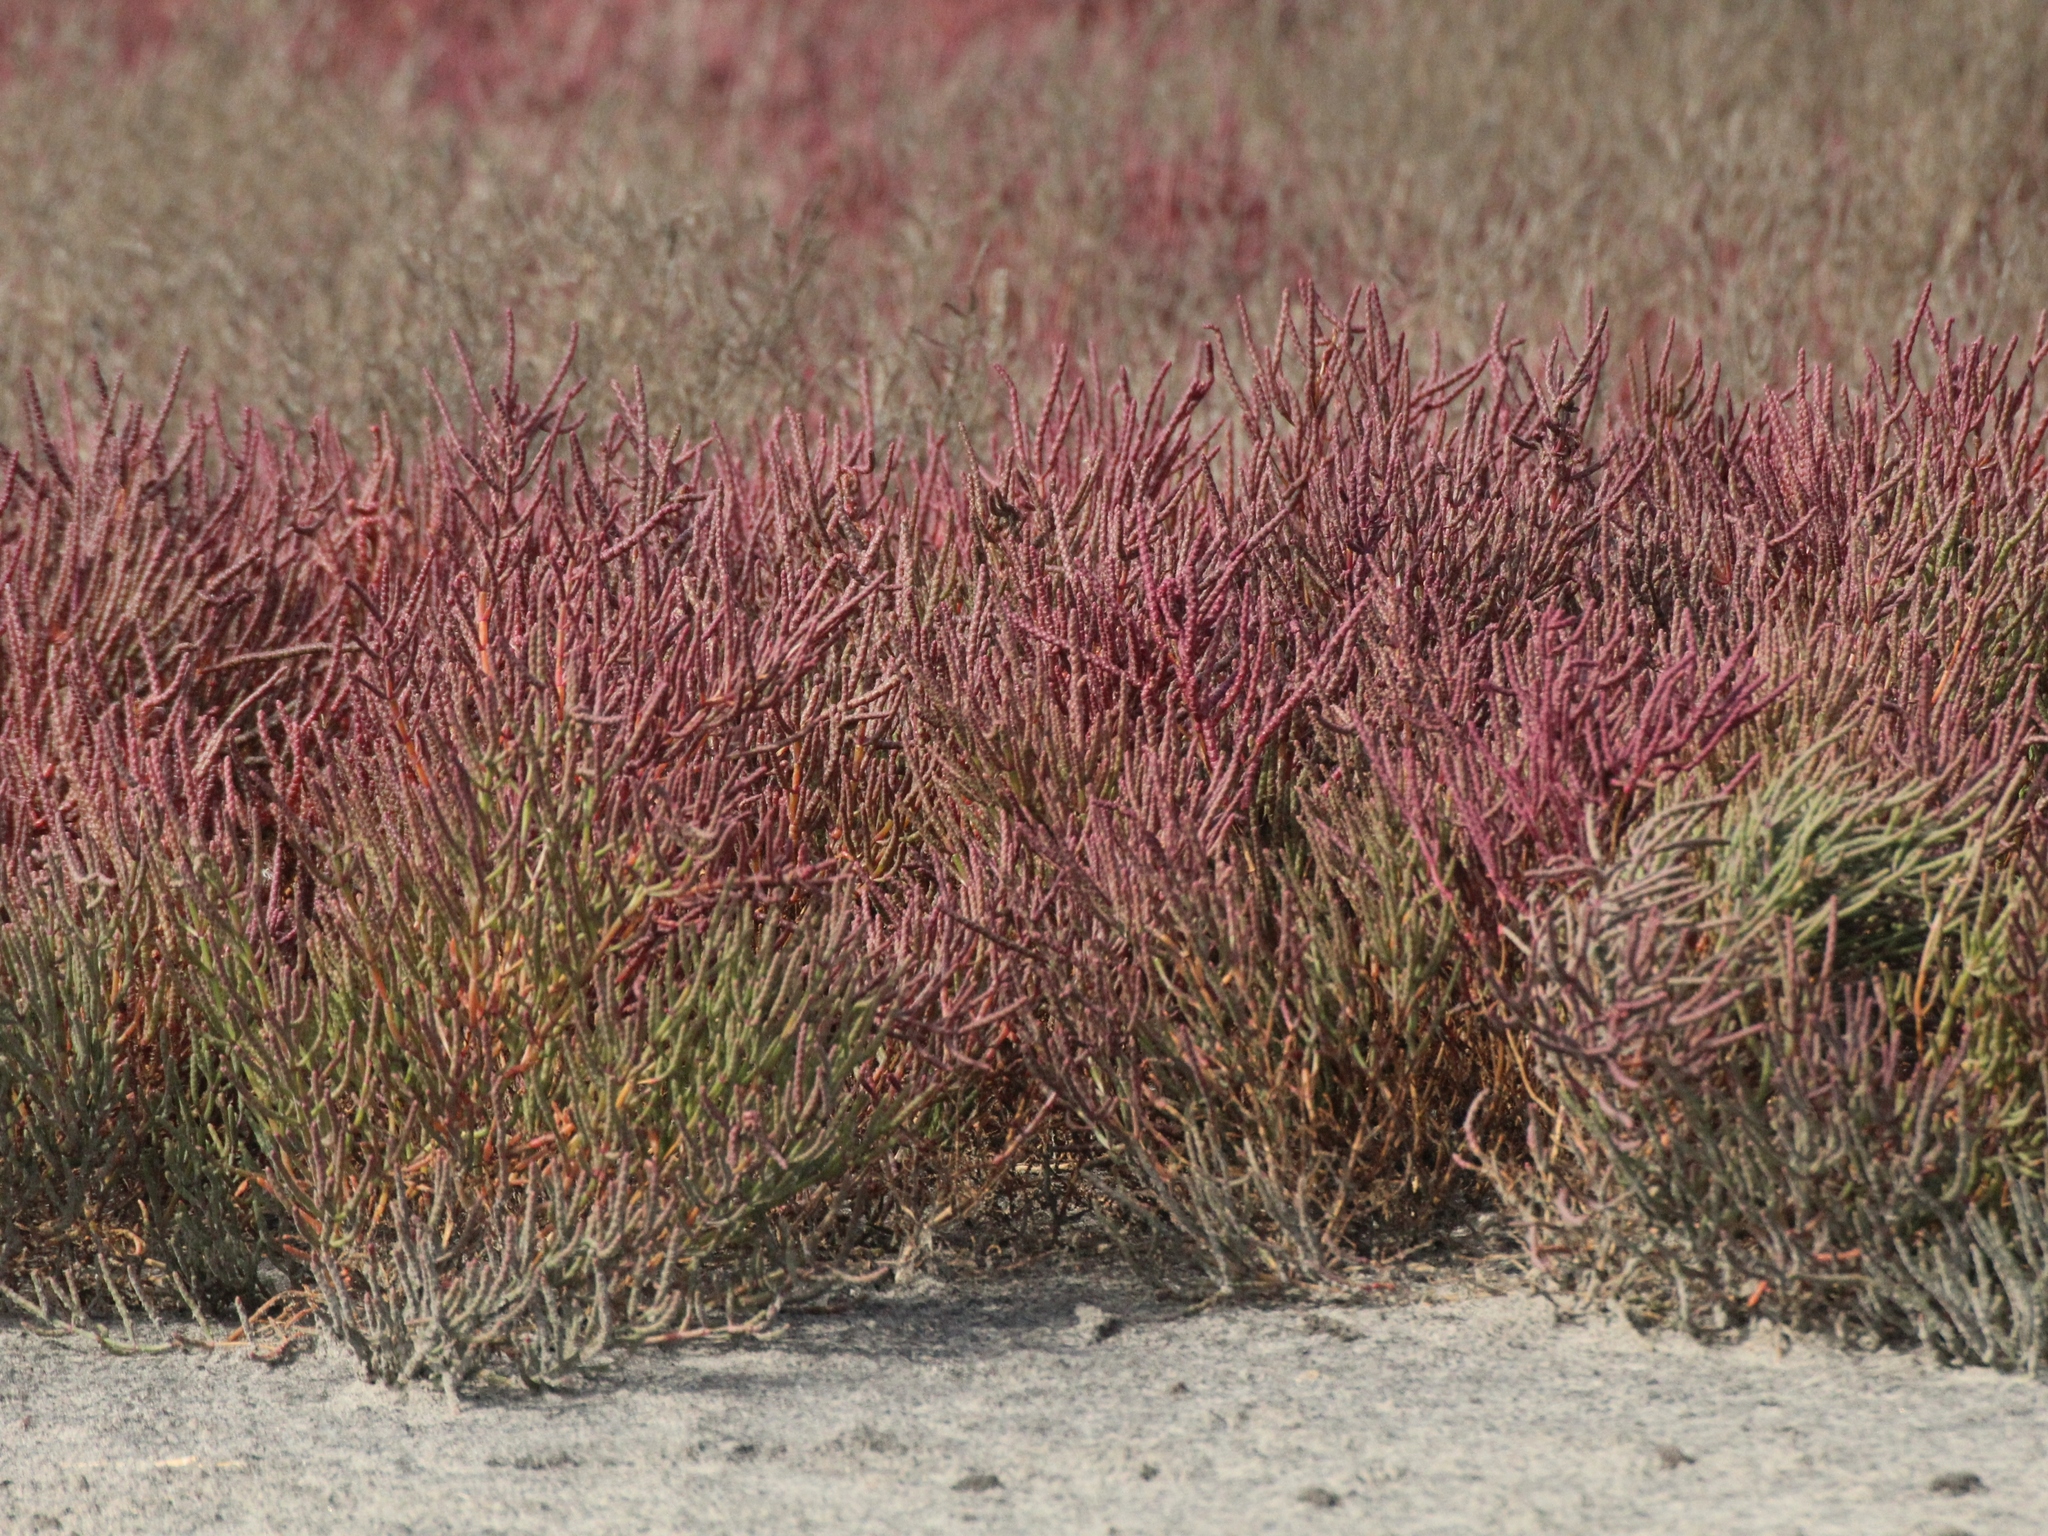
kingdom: Plantae
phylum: Tracheophyta
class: Magnoliopsida
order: Caryophyllales
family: Amaranthaceae
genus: Salicornia
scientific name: Salicornia perennans
